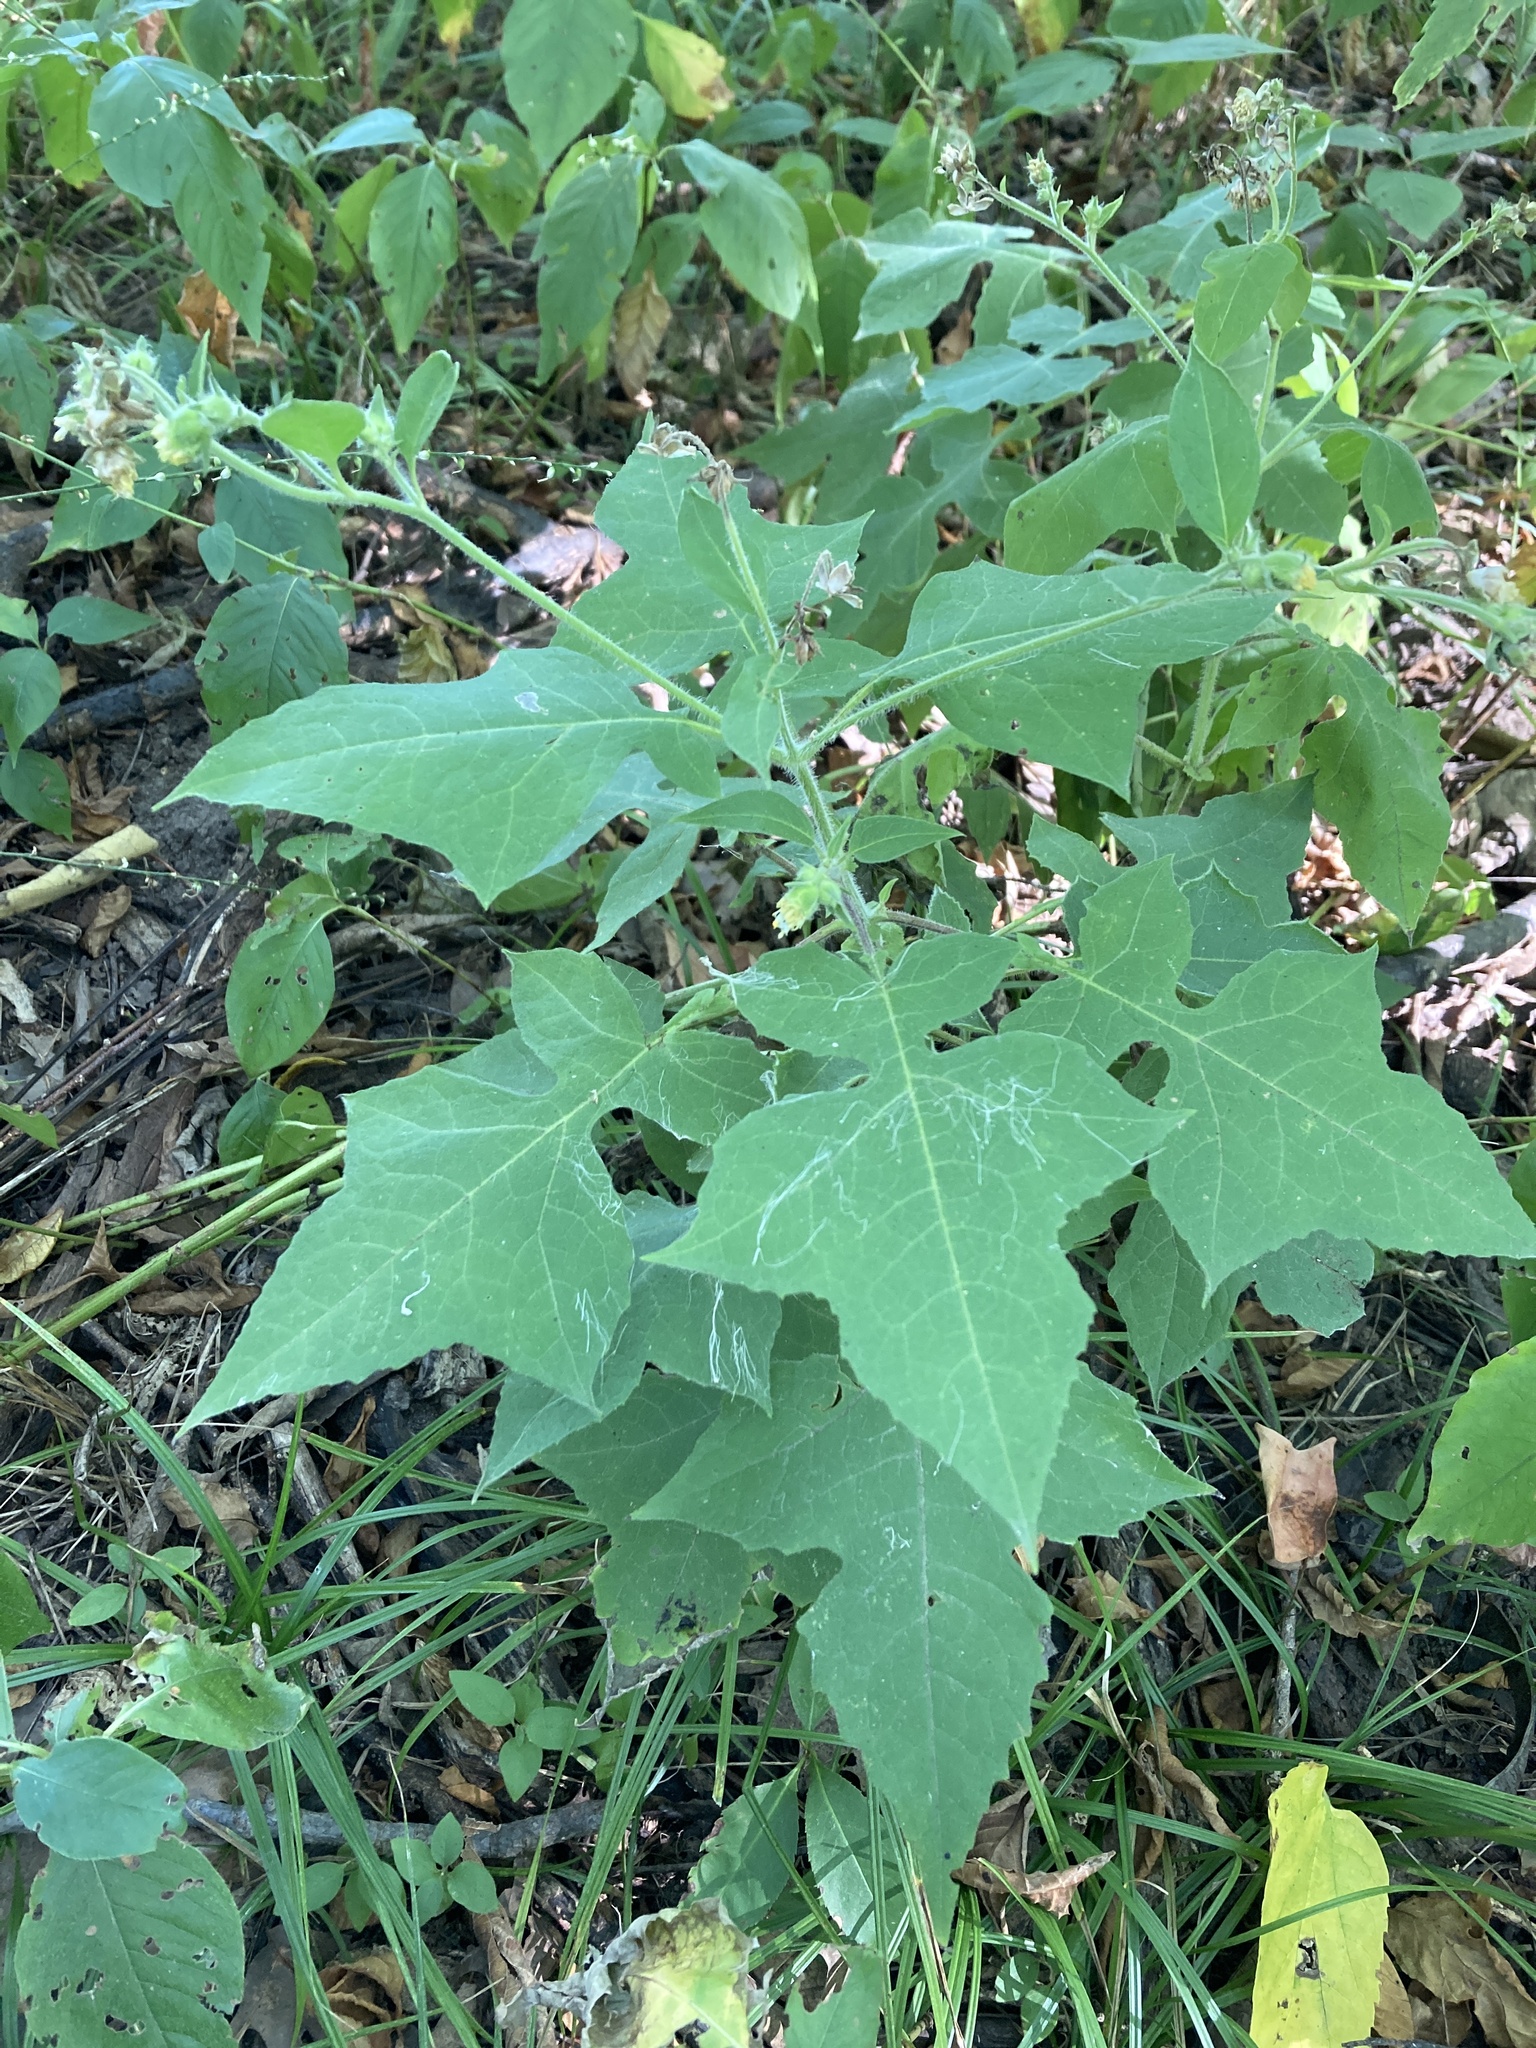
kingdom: Plantae
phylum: Tracheophyta
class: Magnoliopsida
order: Asterales
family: Asteraceae
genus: Polymnia
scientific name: Polymnia canadensis
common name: Pale-flowered leafcup
